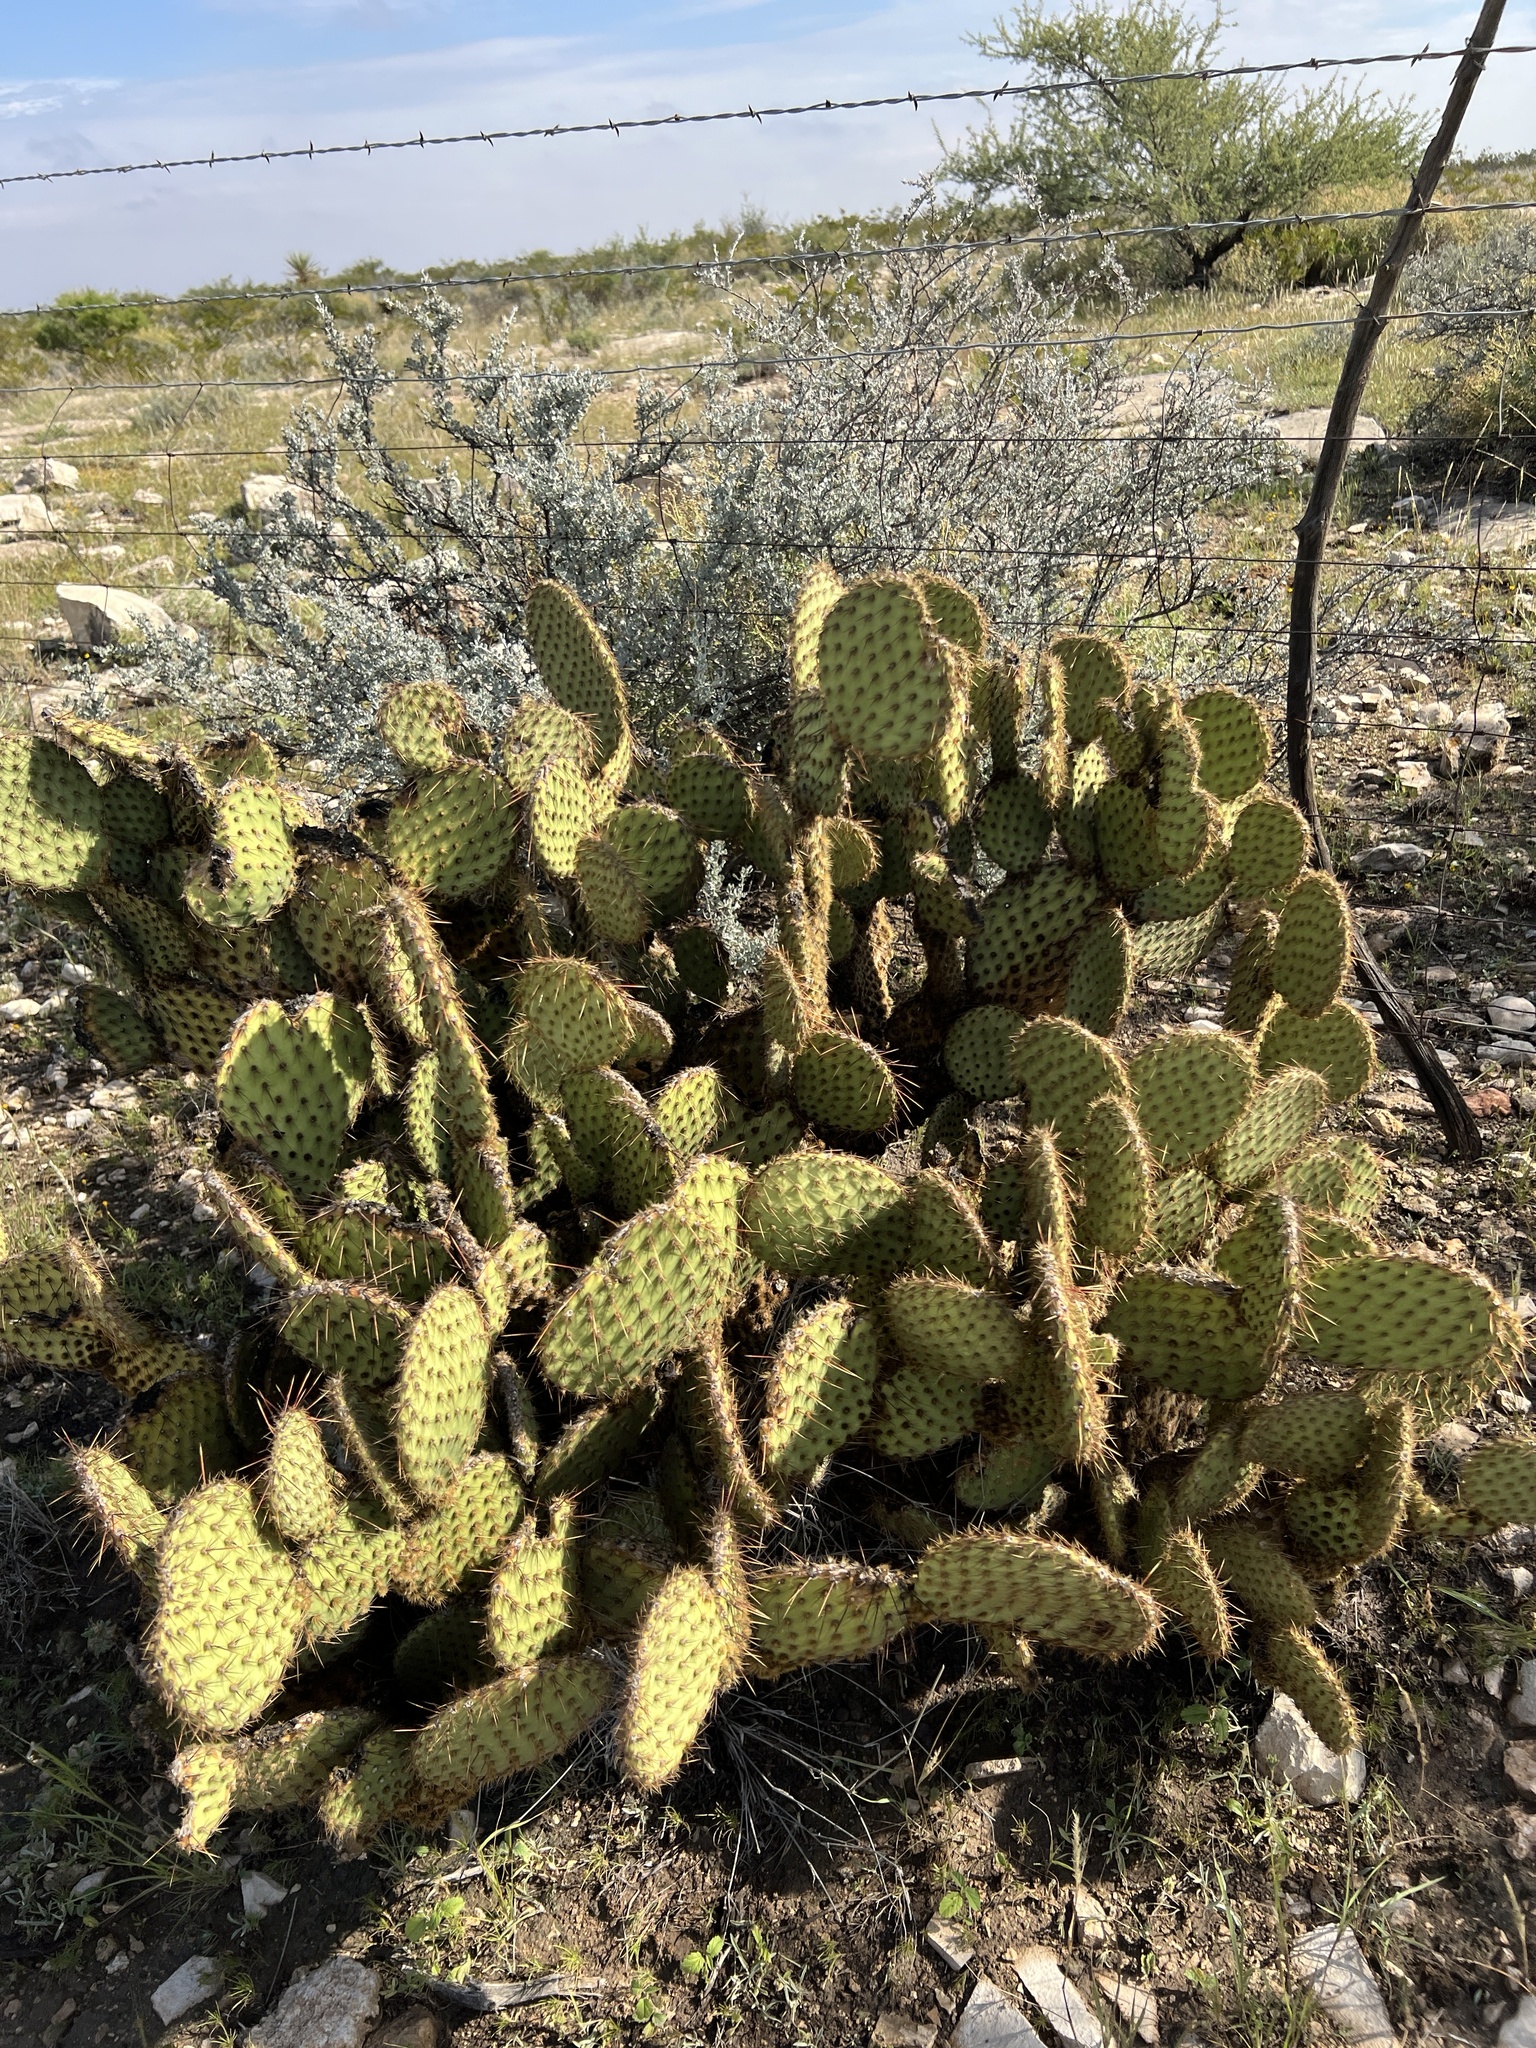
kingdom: Plantae
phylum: Tracheophyta
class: Magnoliopsida
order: Caryophyllales
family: Cactaceae
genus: Opuntia
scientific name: Opuntia strigil
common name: Marble-fruit prickly-pear
